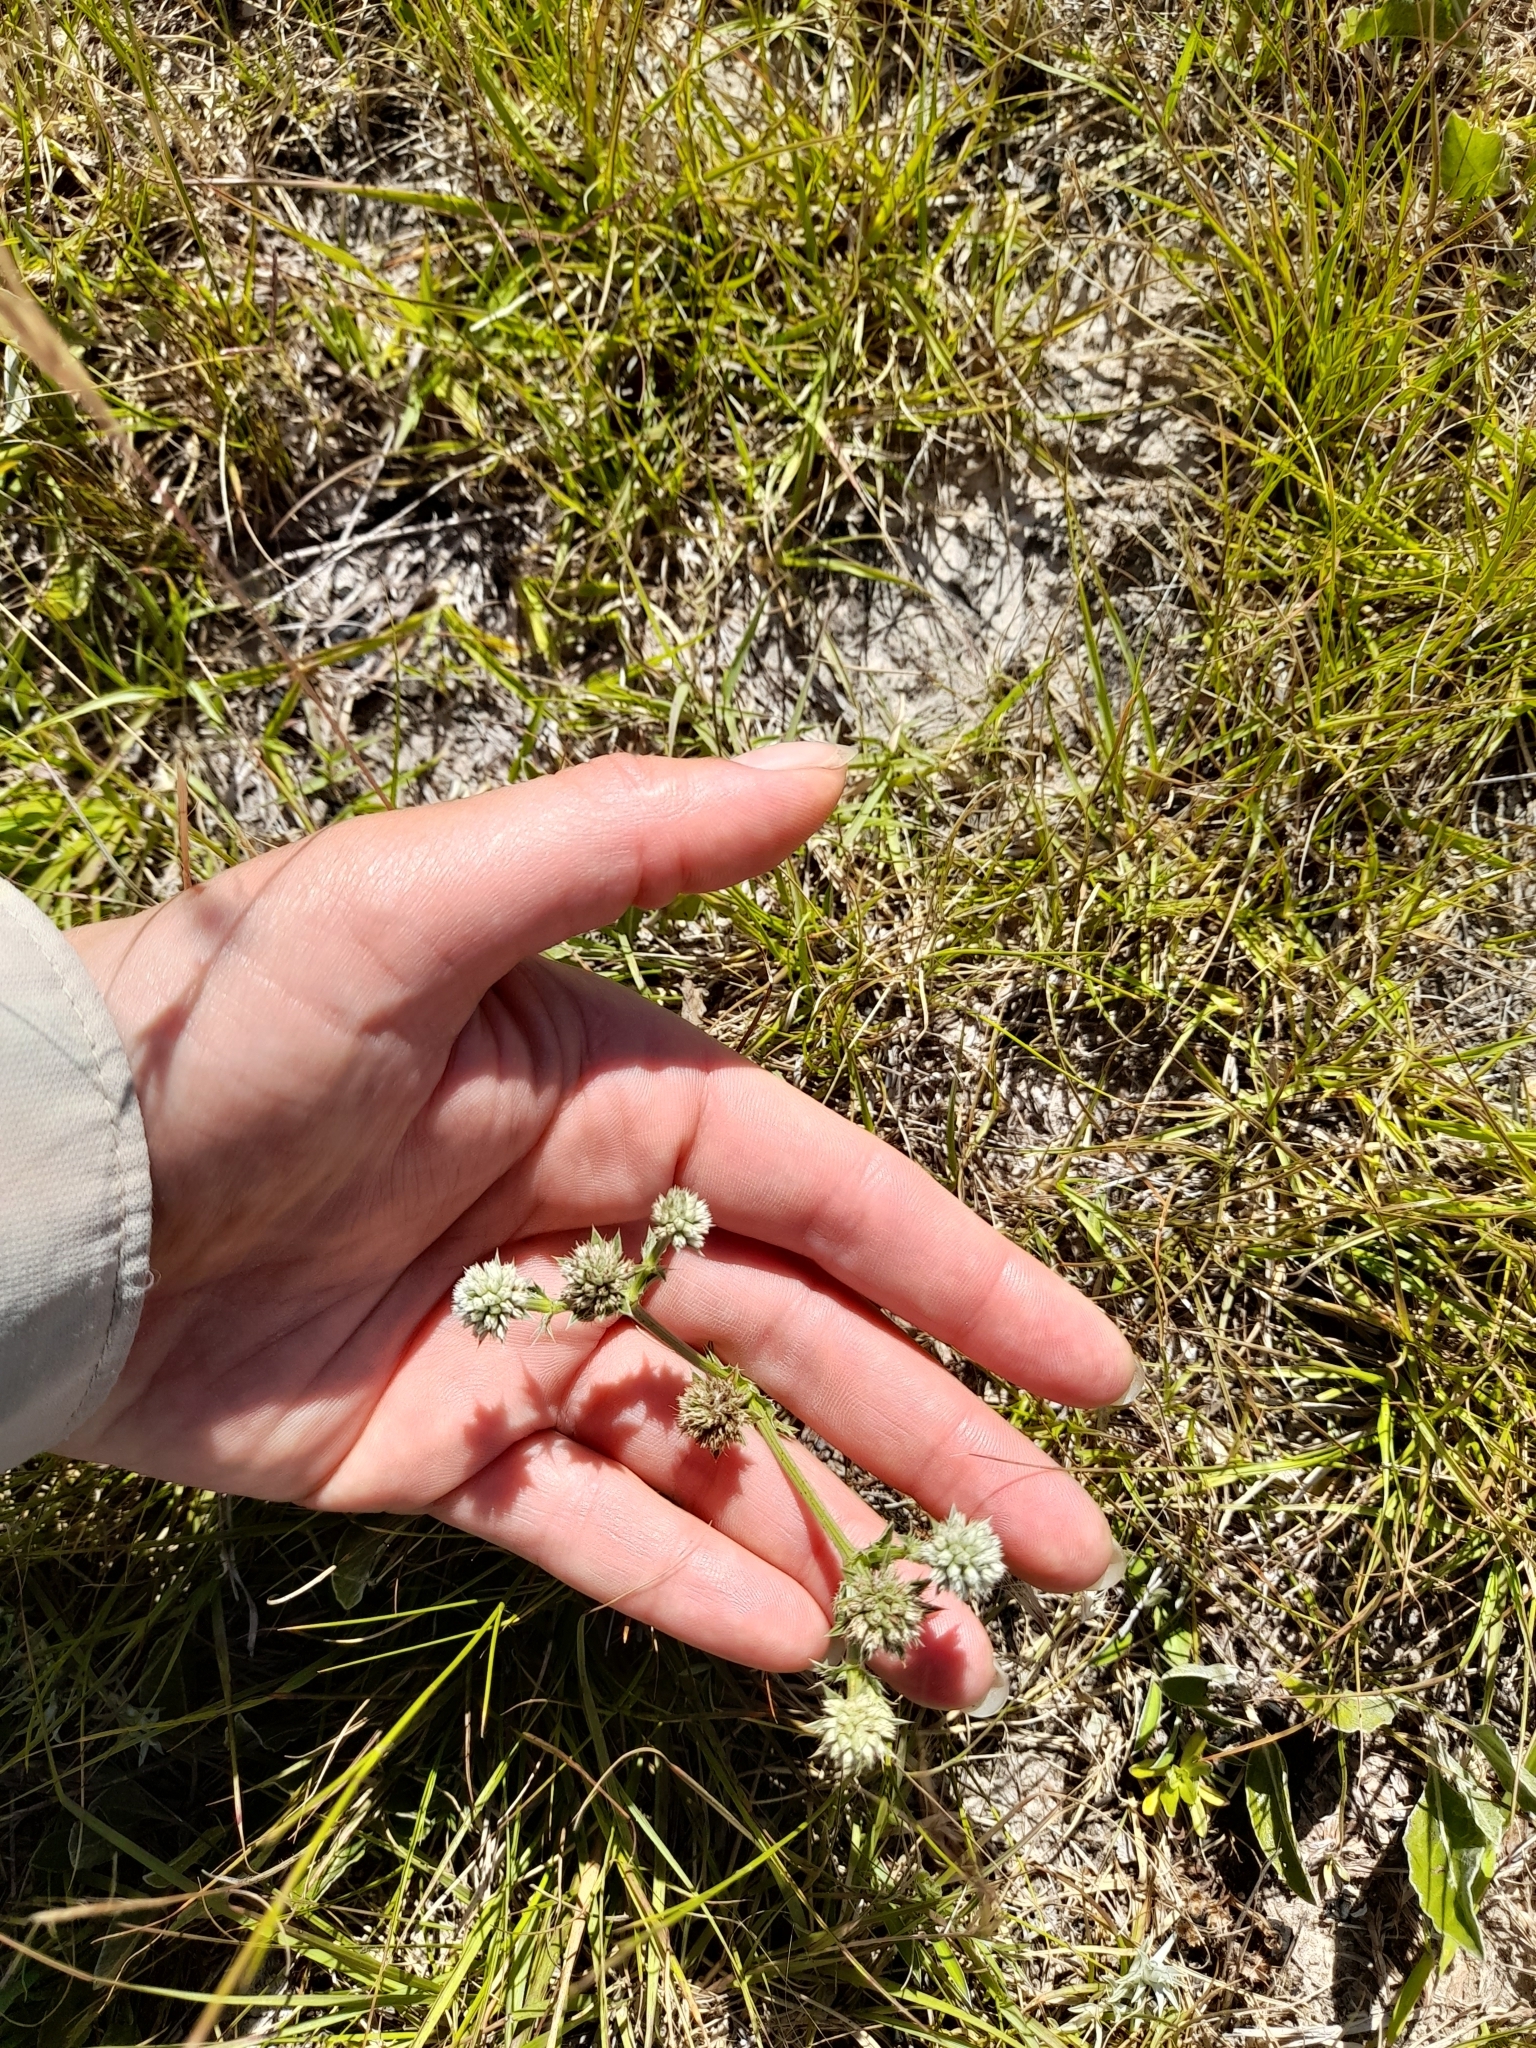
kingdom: Plantae
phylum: Tracheophyta
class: Magnoliopsida
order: Apiales
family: Apiaceae
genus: Eryngium
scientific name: Eryngium nudicaule
